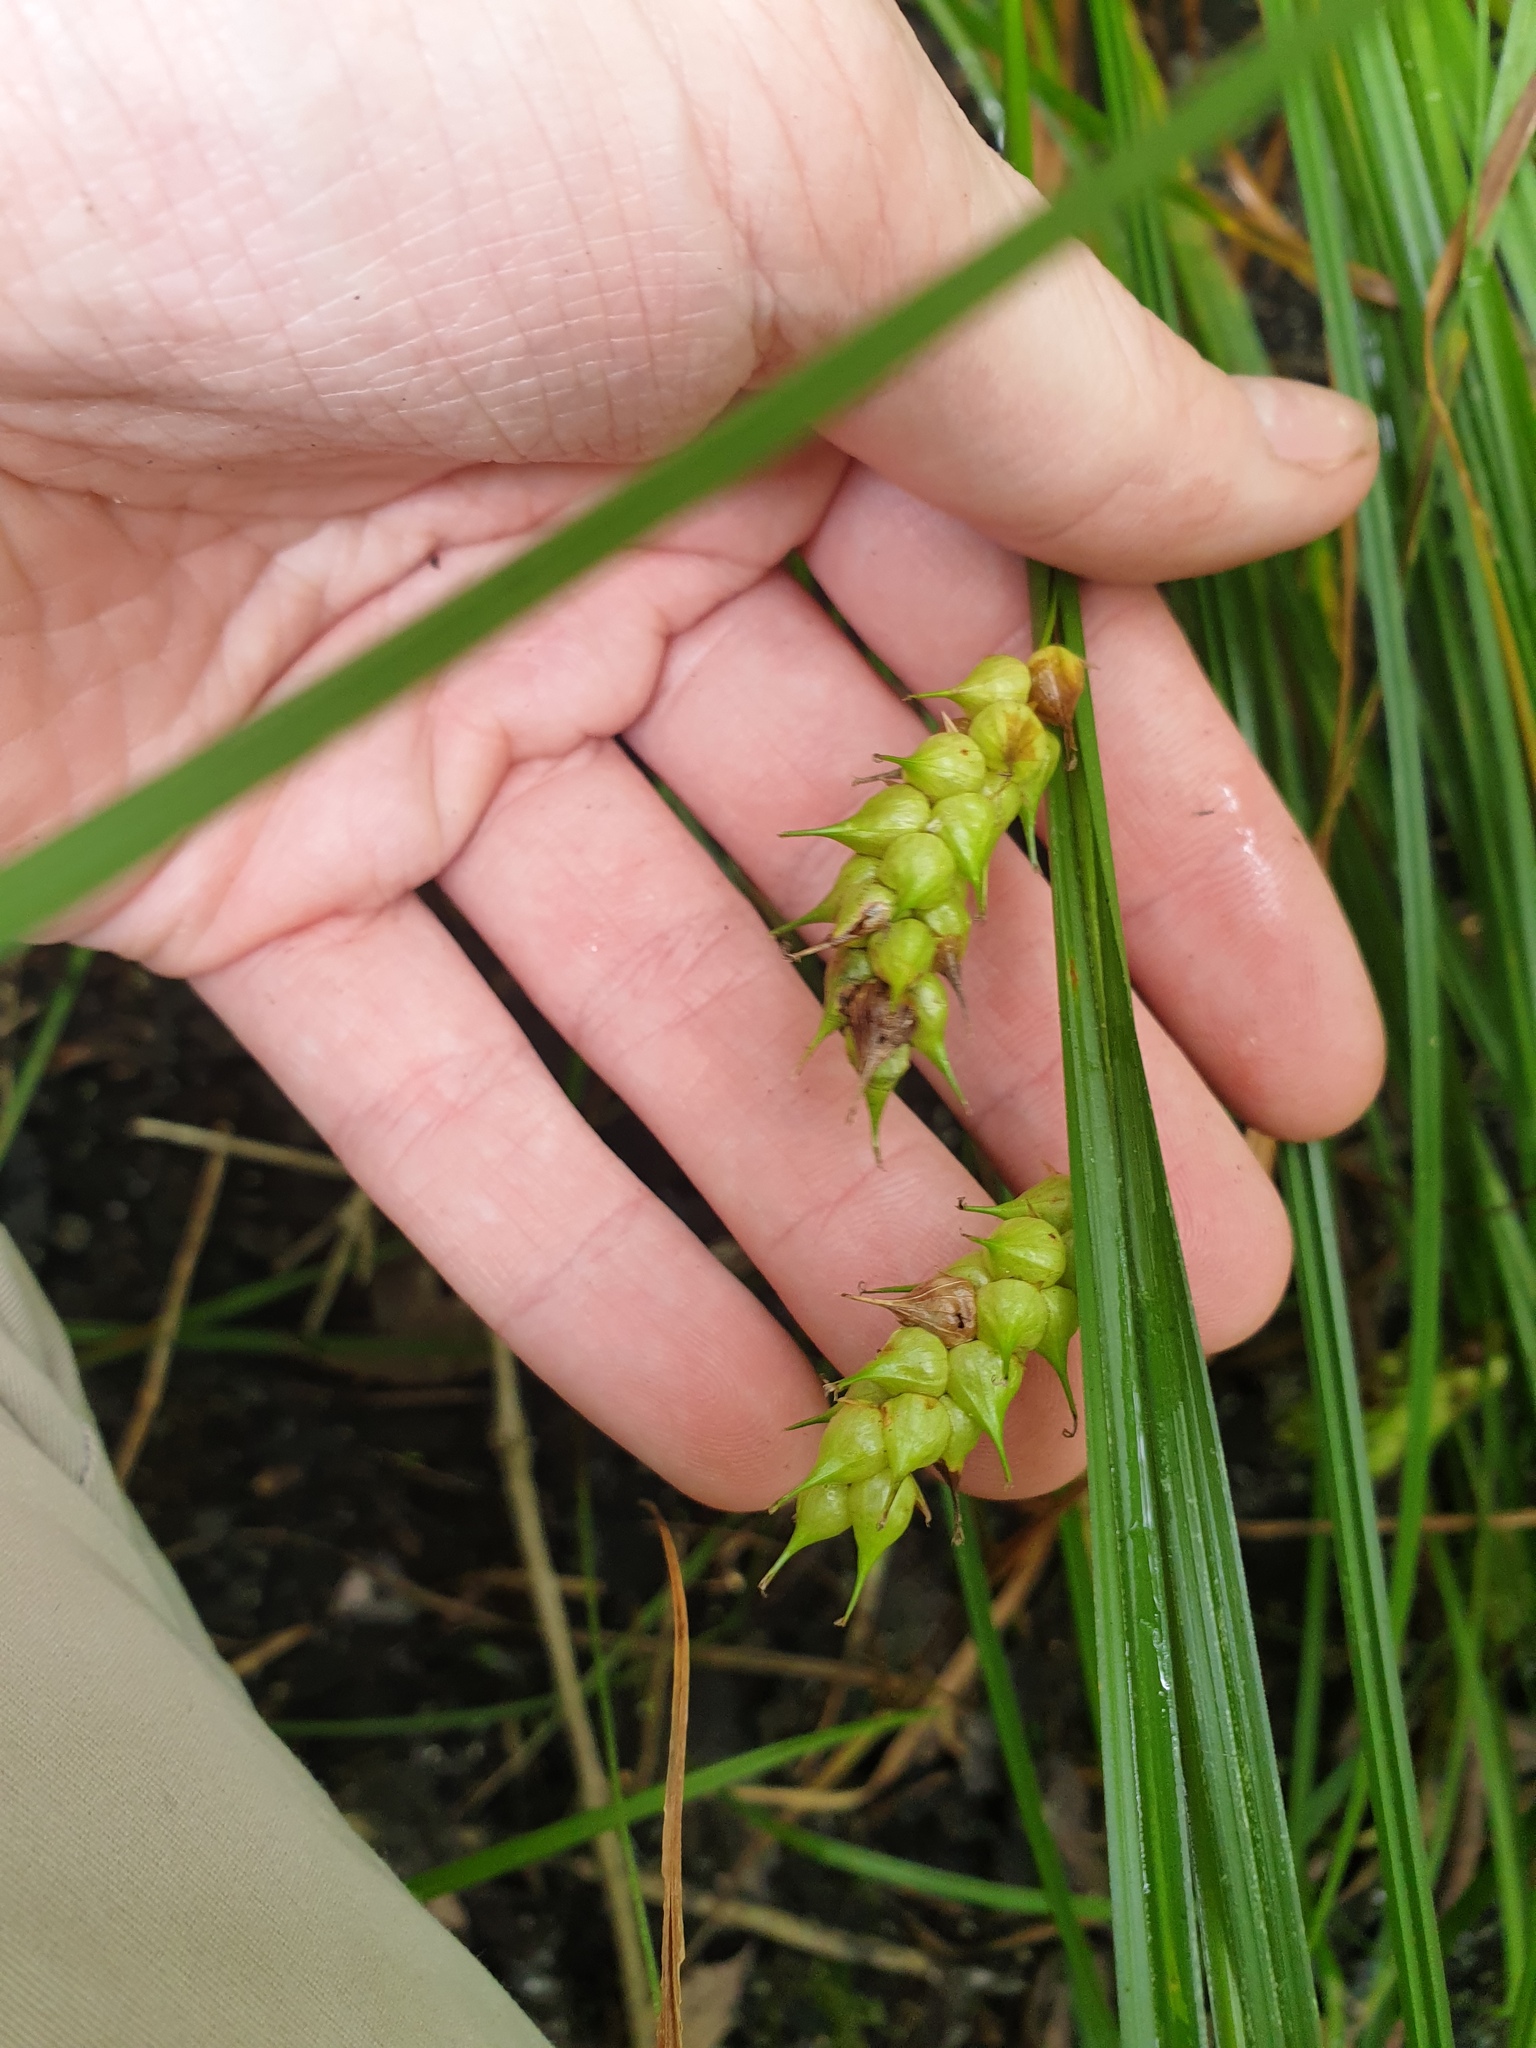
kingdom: Plantae
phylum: Tracheophyta
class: Liliopsida
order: Poales
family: Cyperaceae
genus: Carex
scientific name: Carex tuckermanii
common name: Tuckerman's sedge
